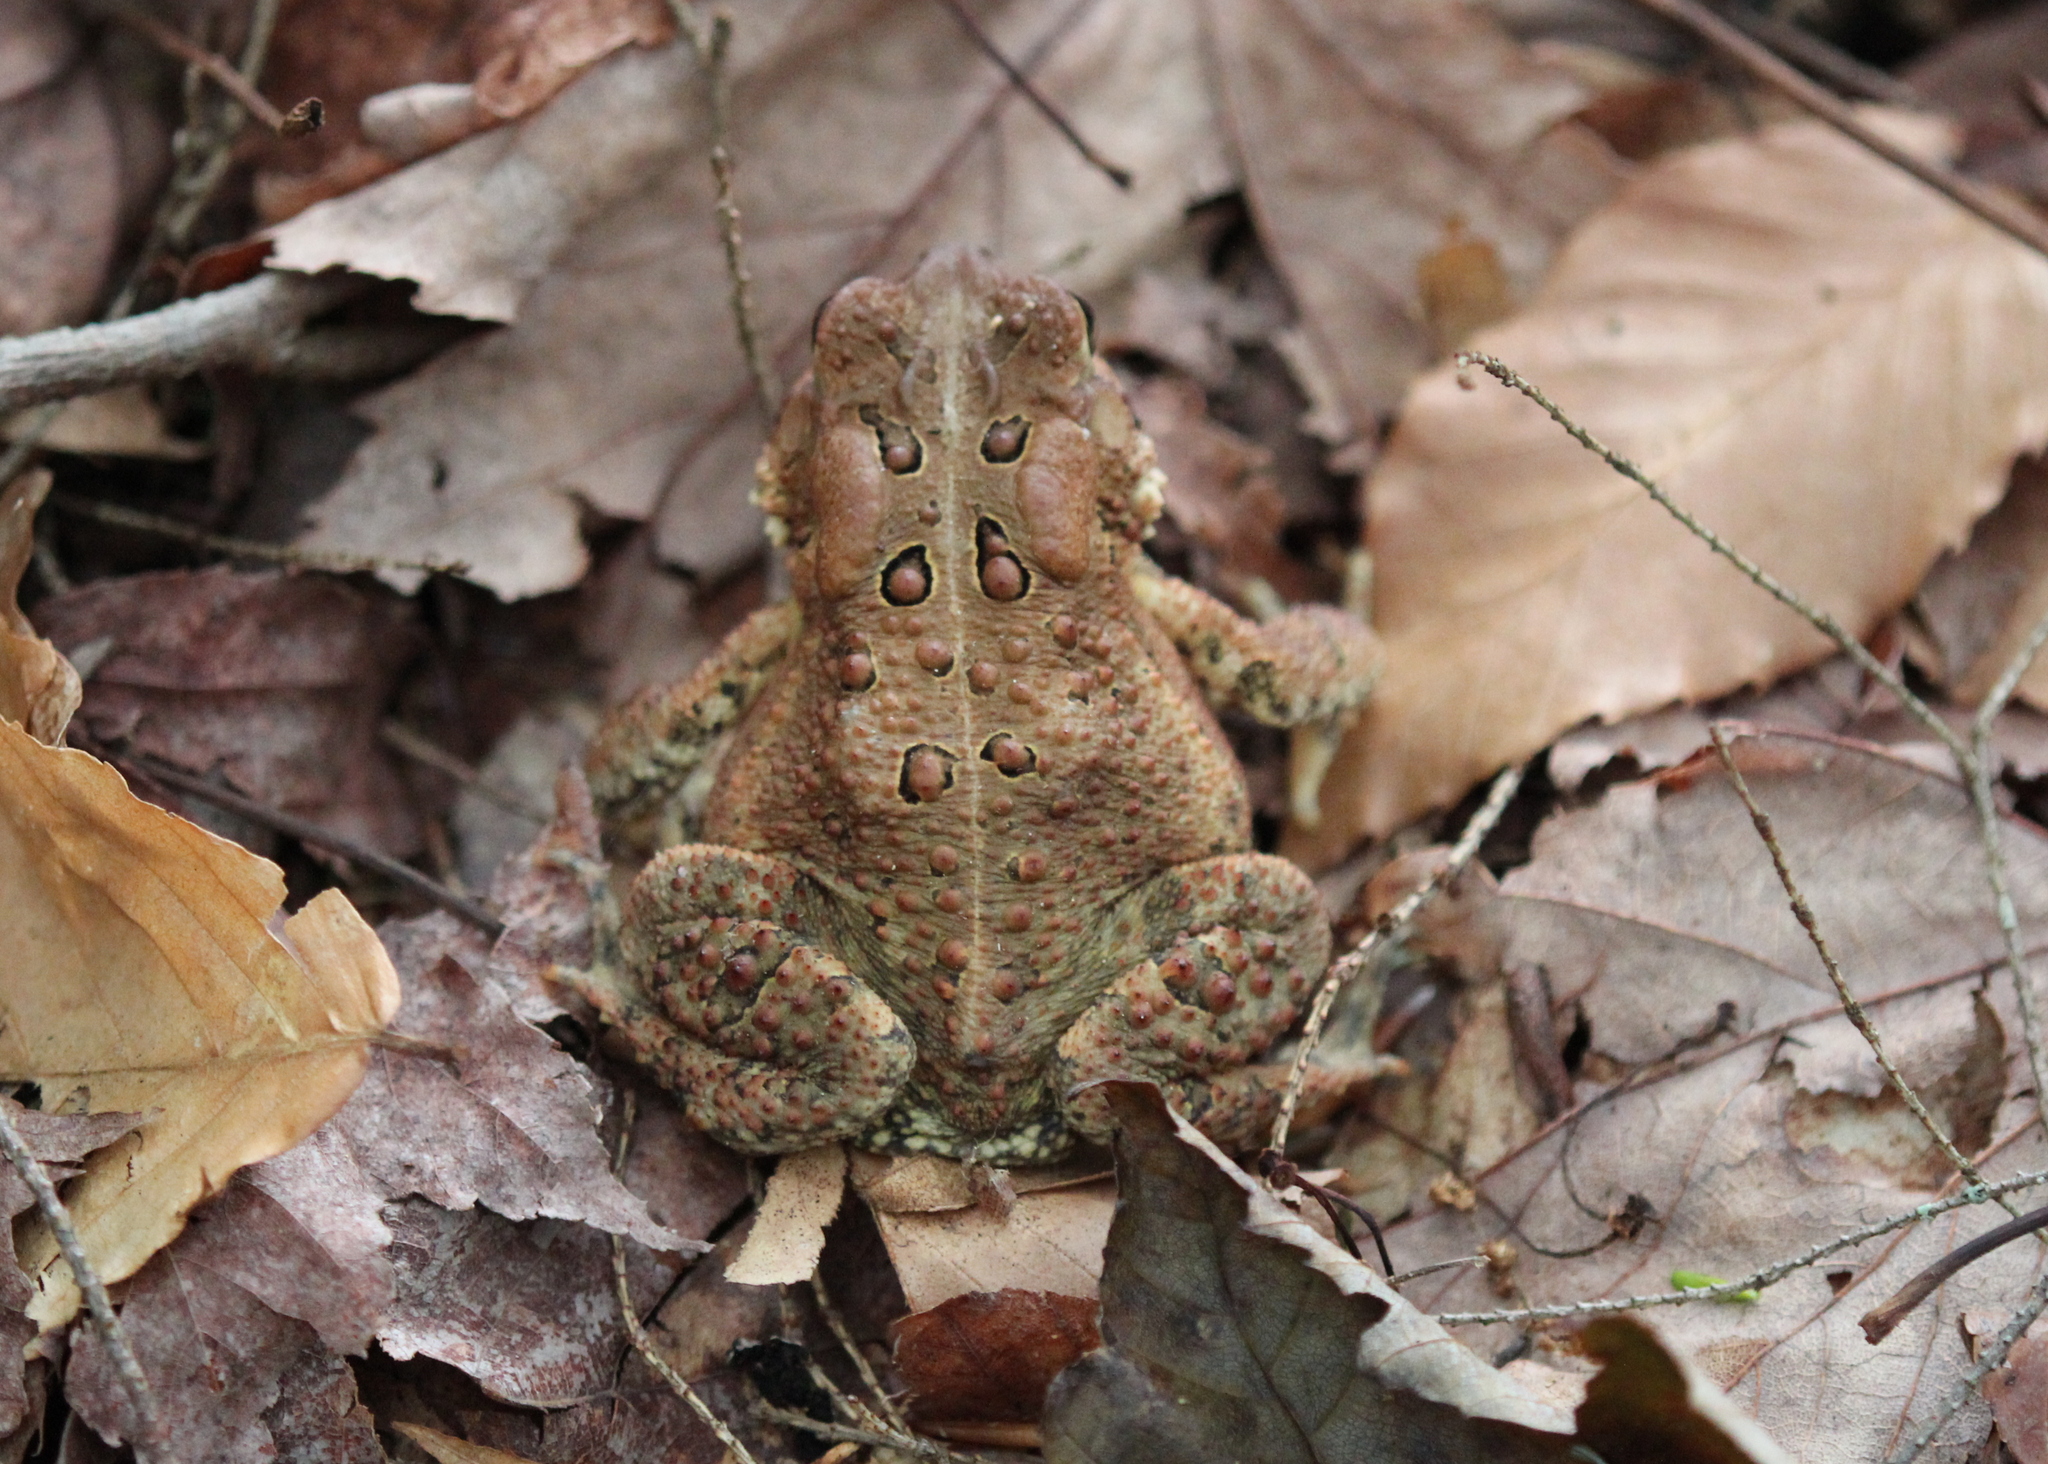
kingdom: Animalia
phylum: Chordata
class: Amphibia
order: Anura
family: Bufonidae
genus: Anaxyrus
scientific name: Anaxyrus americanus
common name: American toad
